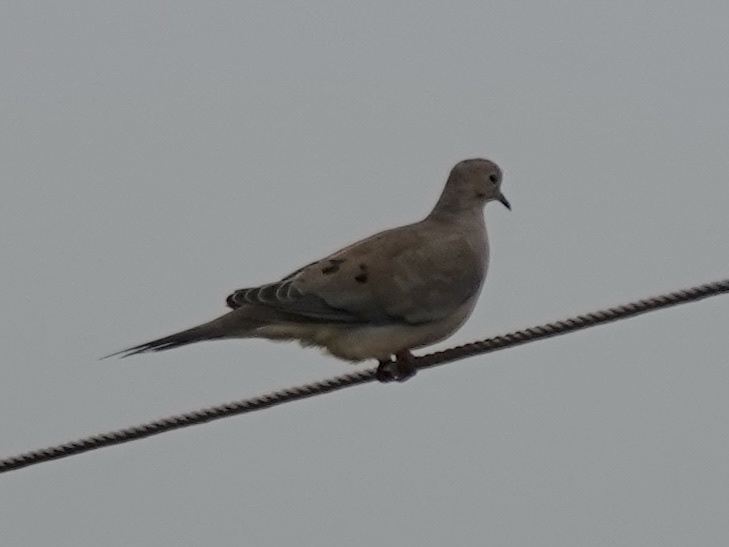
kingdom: Animalia
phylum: Chordata
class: Aves
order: Columbiformes
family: Columbidae
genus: Zenaida
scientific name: Zenaida macroura
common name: Mourning dove
